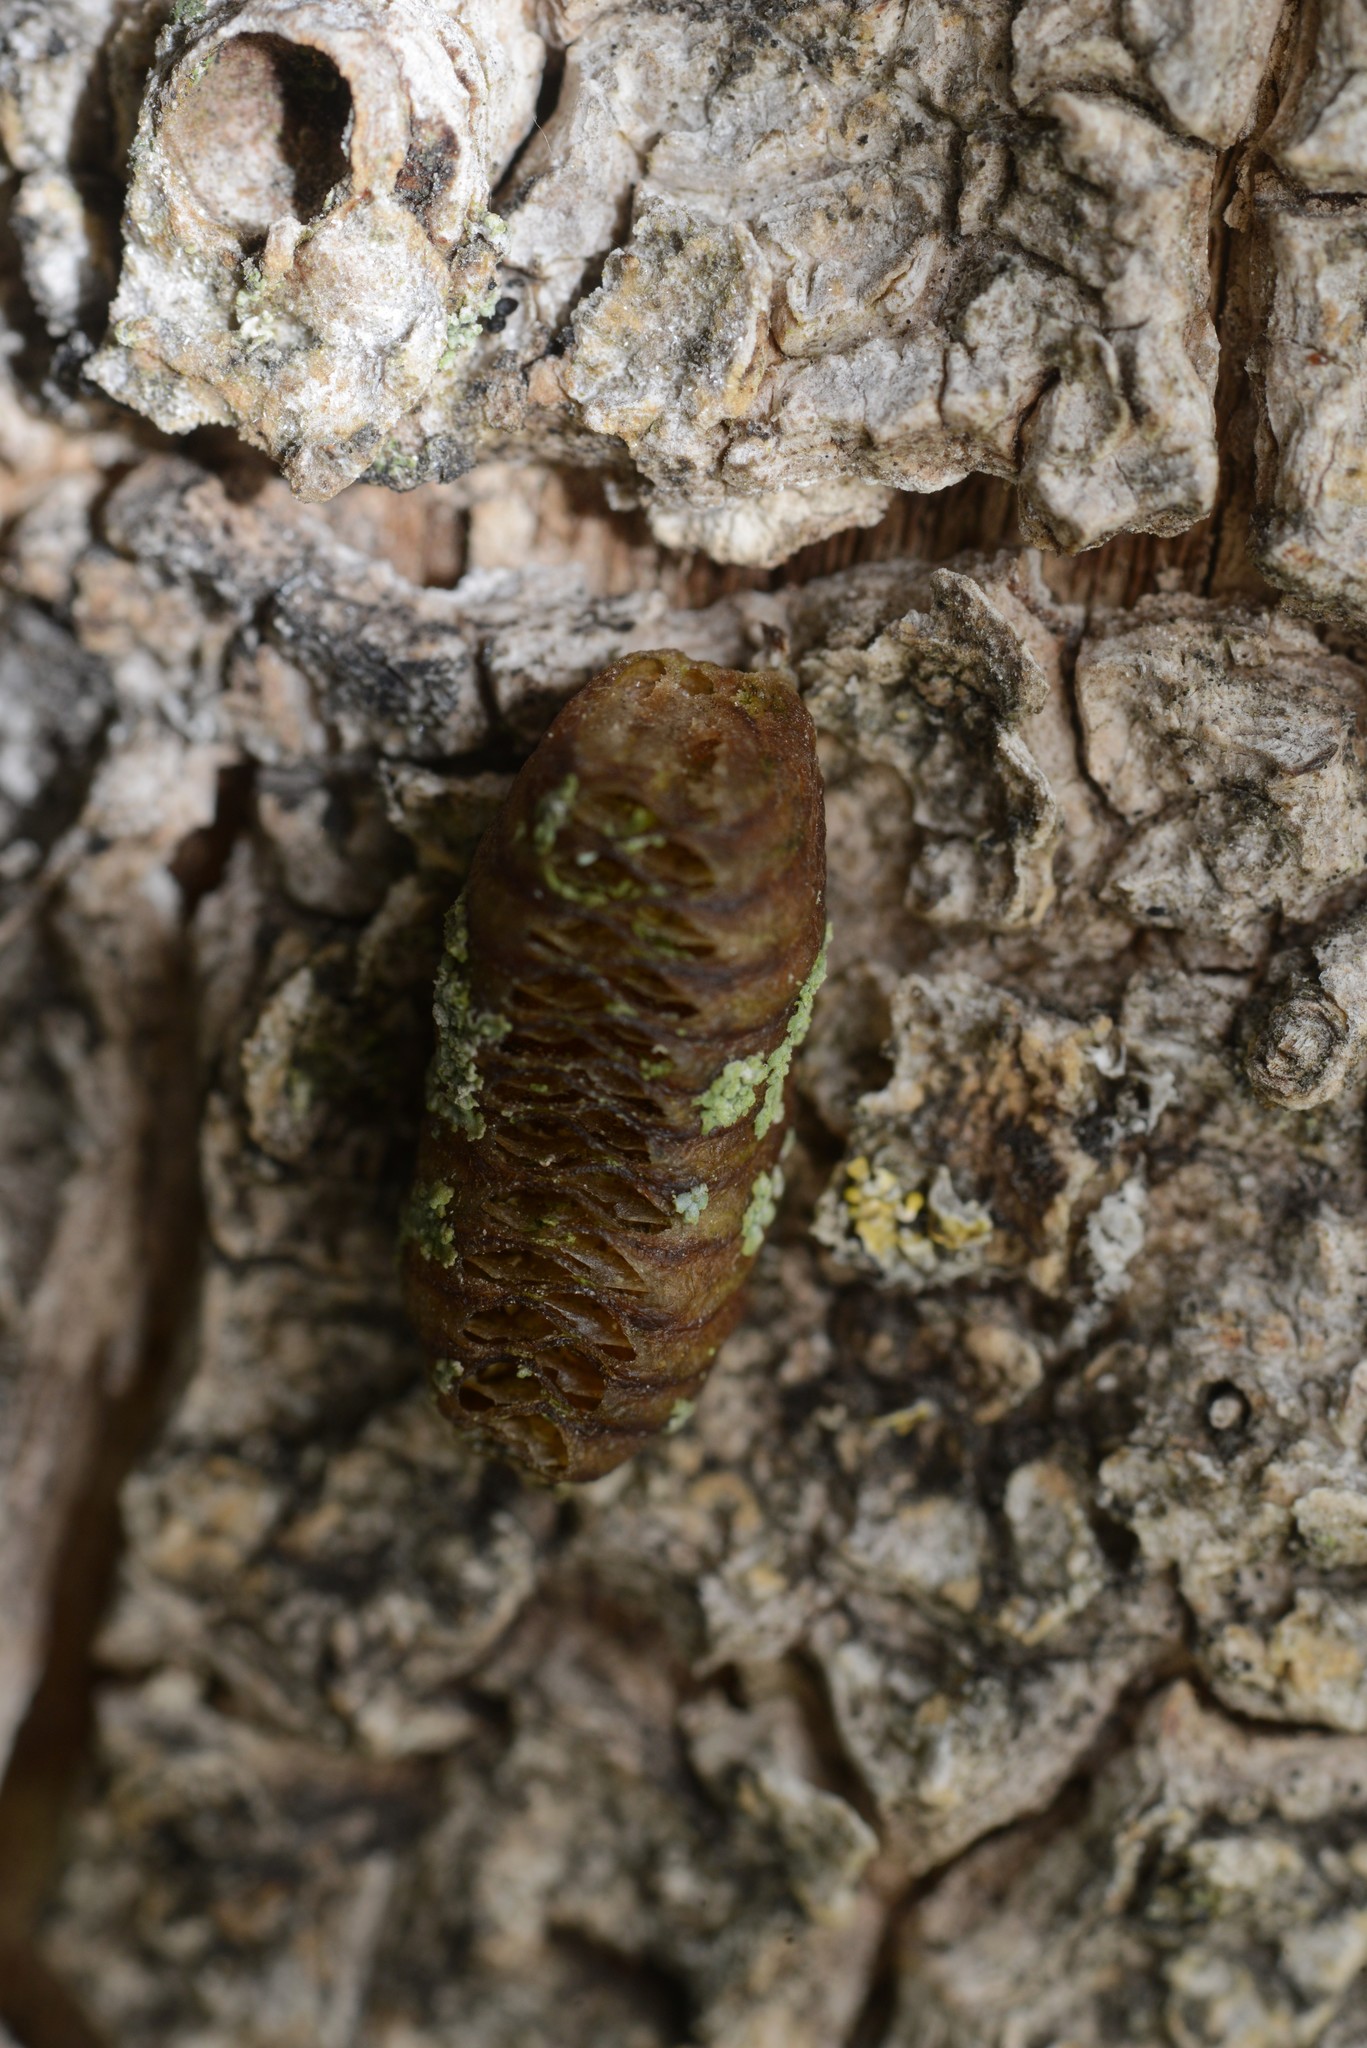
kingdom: Animalia
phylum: Arthropoda
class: Insecta
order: Mantodea
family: Mantidae
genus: Orthodera
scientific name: Orthodera novaezealandiae
